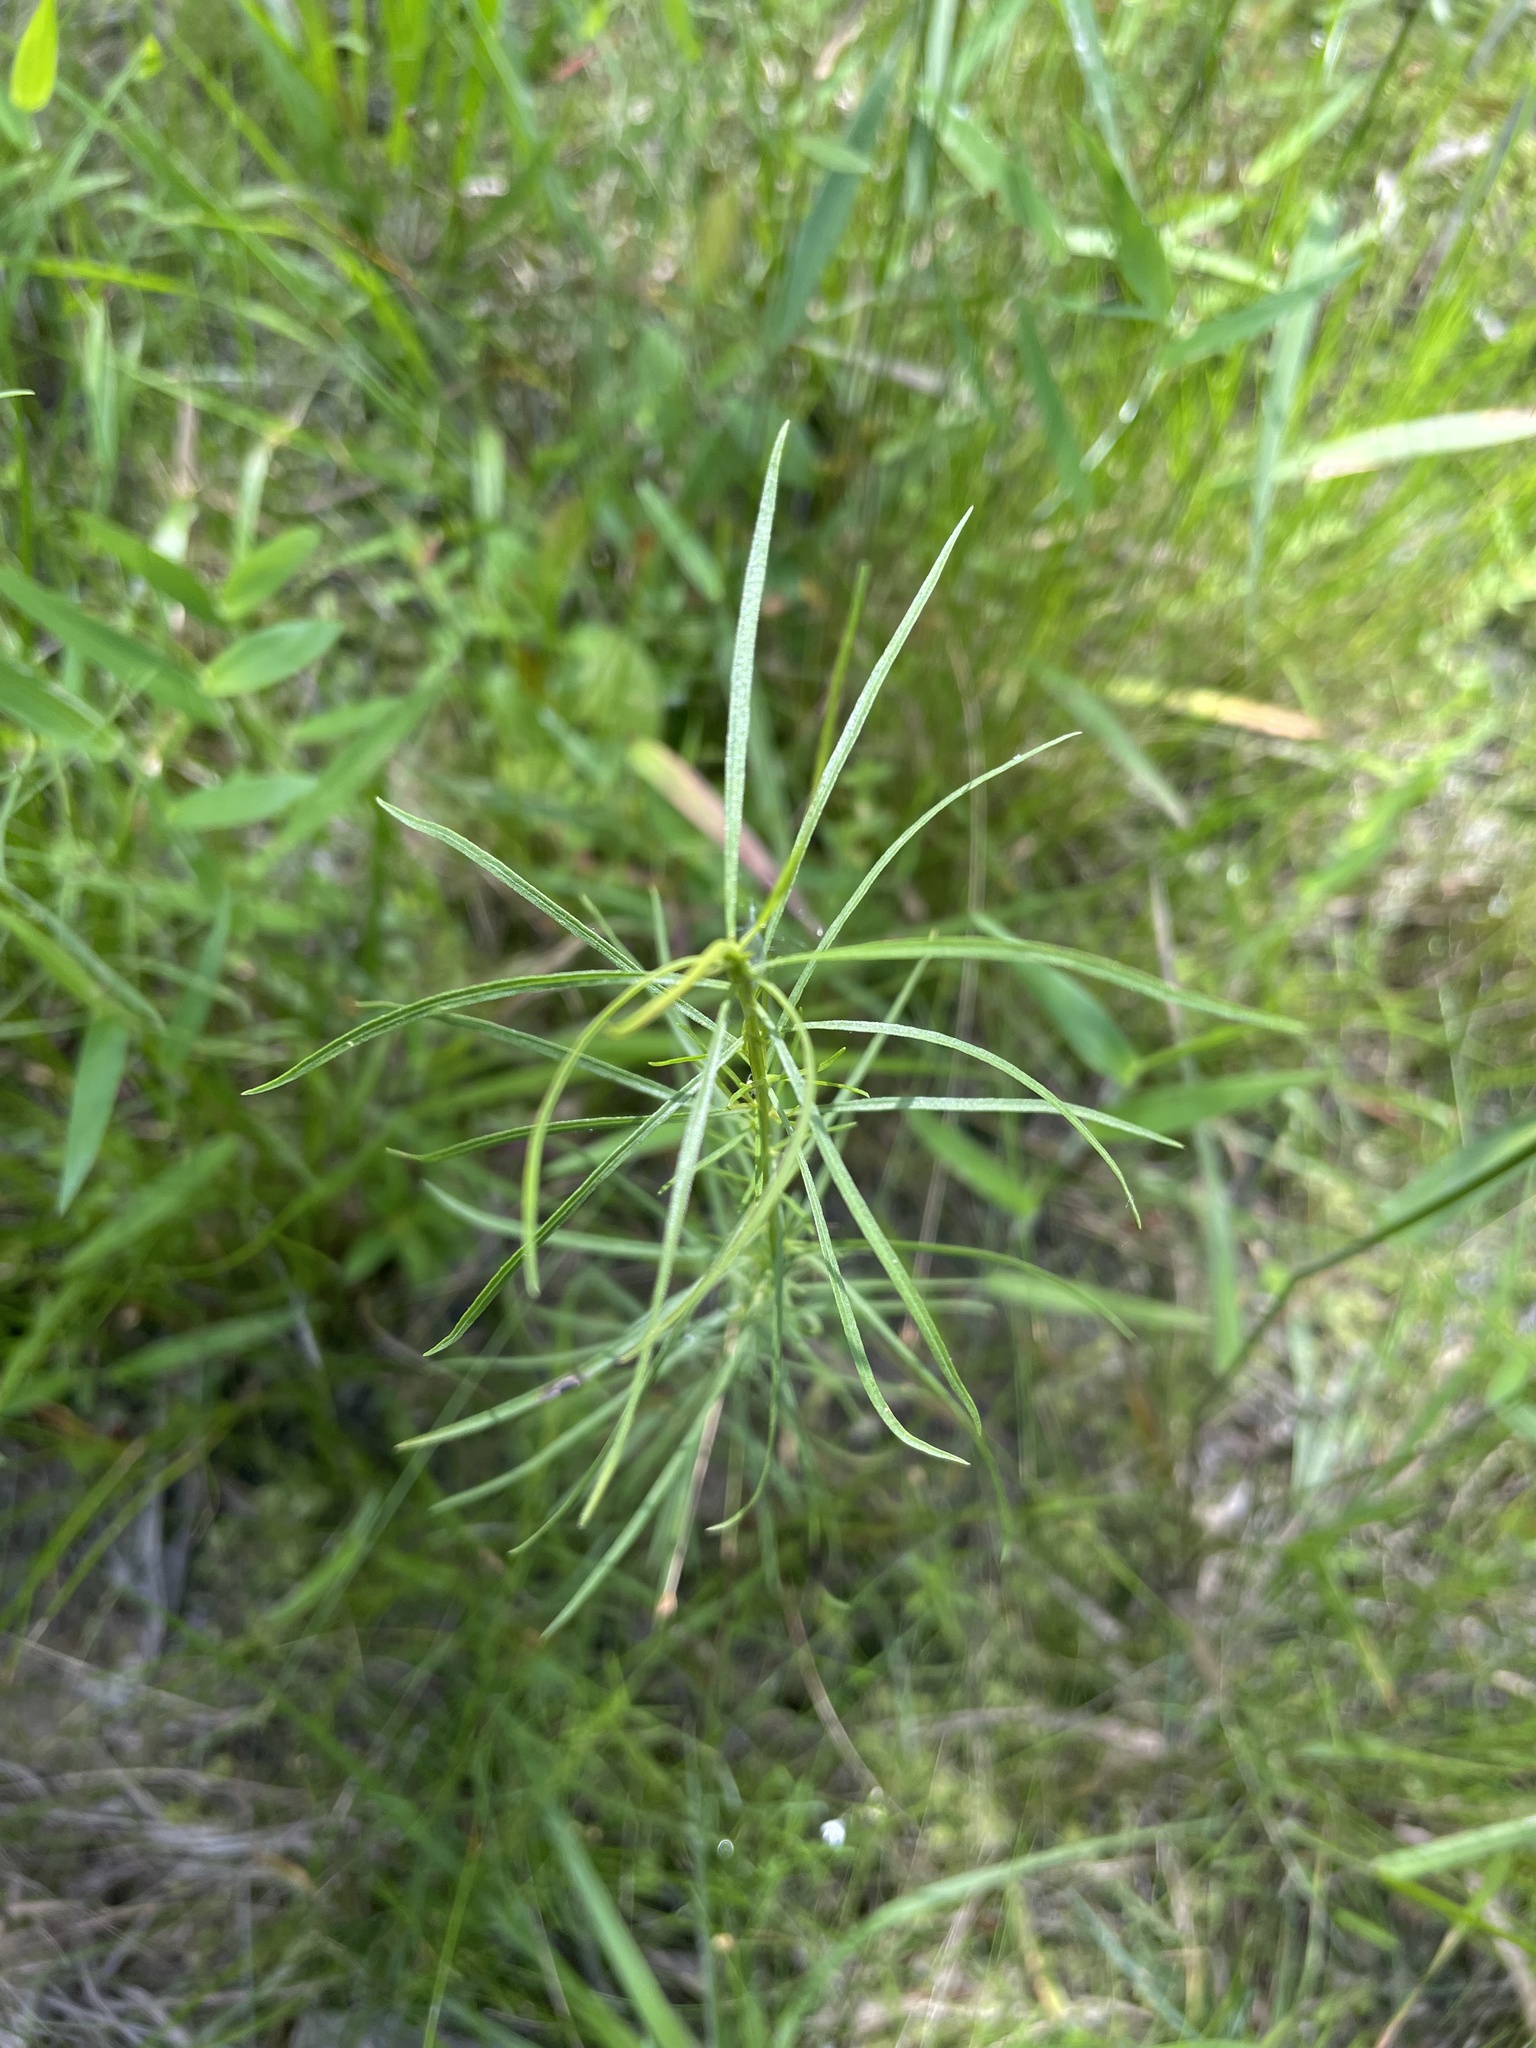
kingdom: Plantae
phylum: Tracheophyta
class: Magnoliopsida
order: Asterales
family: Asteraceae
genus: Euthamia
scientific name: Euthamia caroliniana
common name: Coastal plain goldentop
